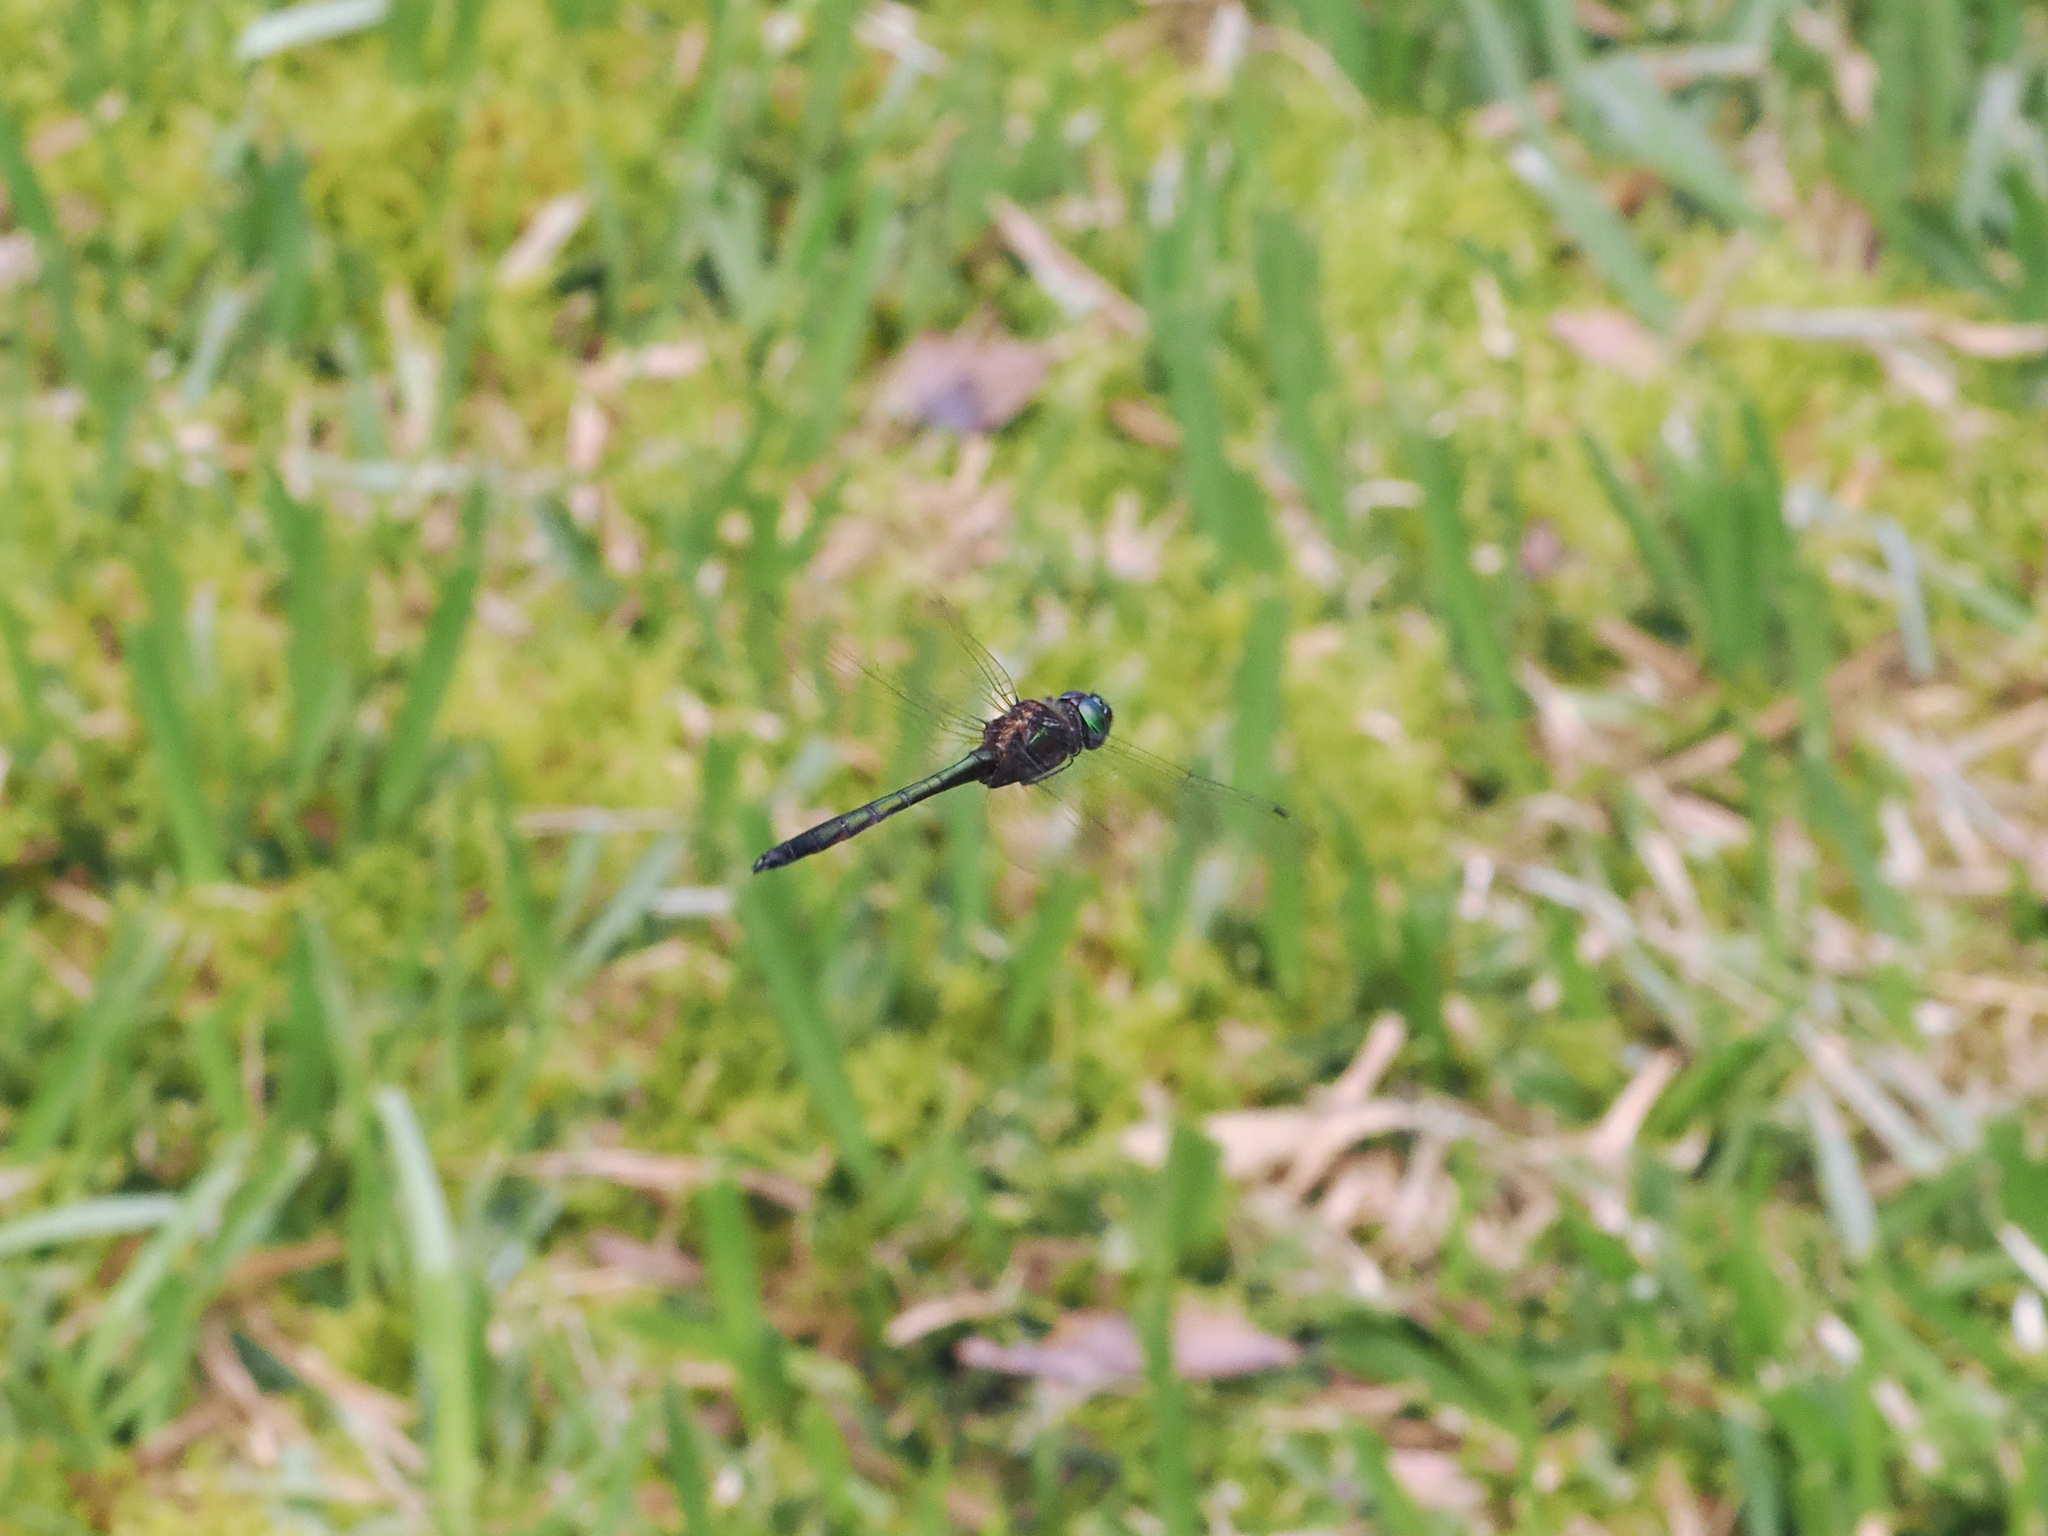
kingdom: Animalia
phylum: Arthropoda
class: Insecta
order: Odonata
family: Corduliidae
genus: Procordulia
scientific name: Procordulia fusiformis
